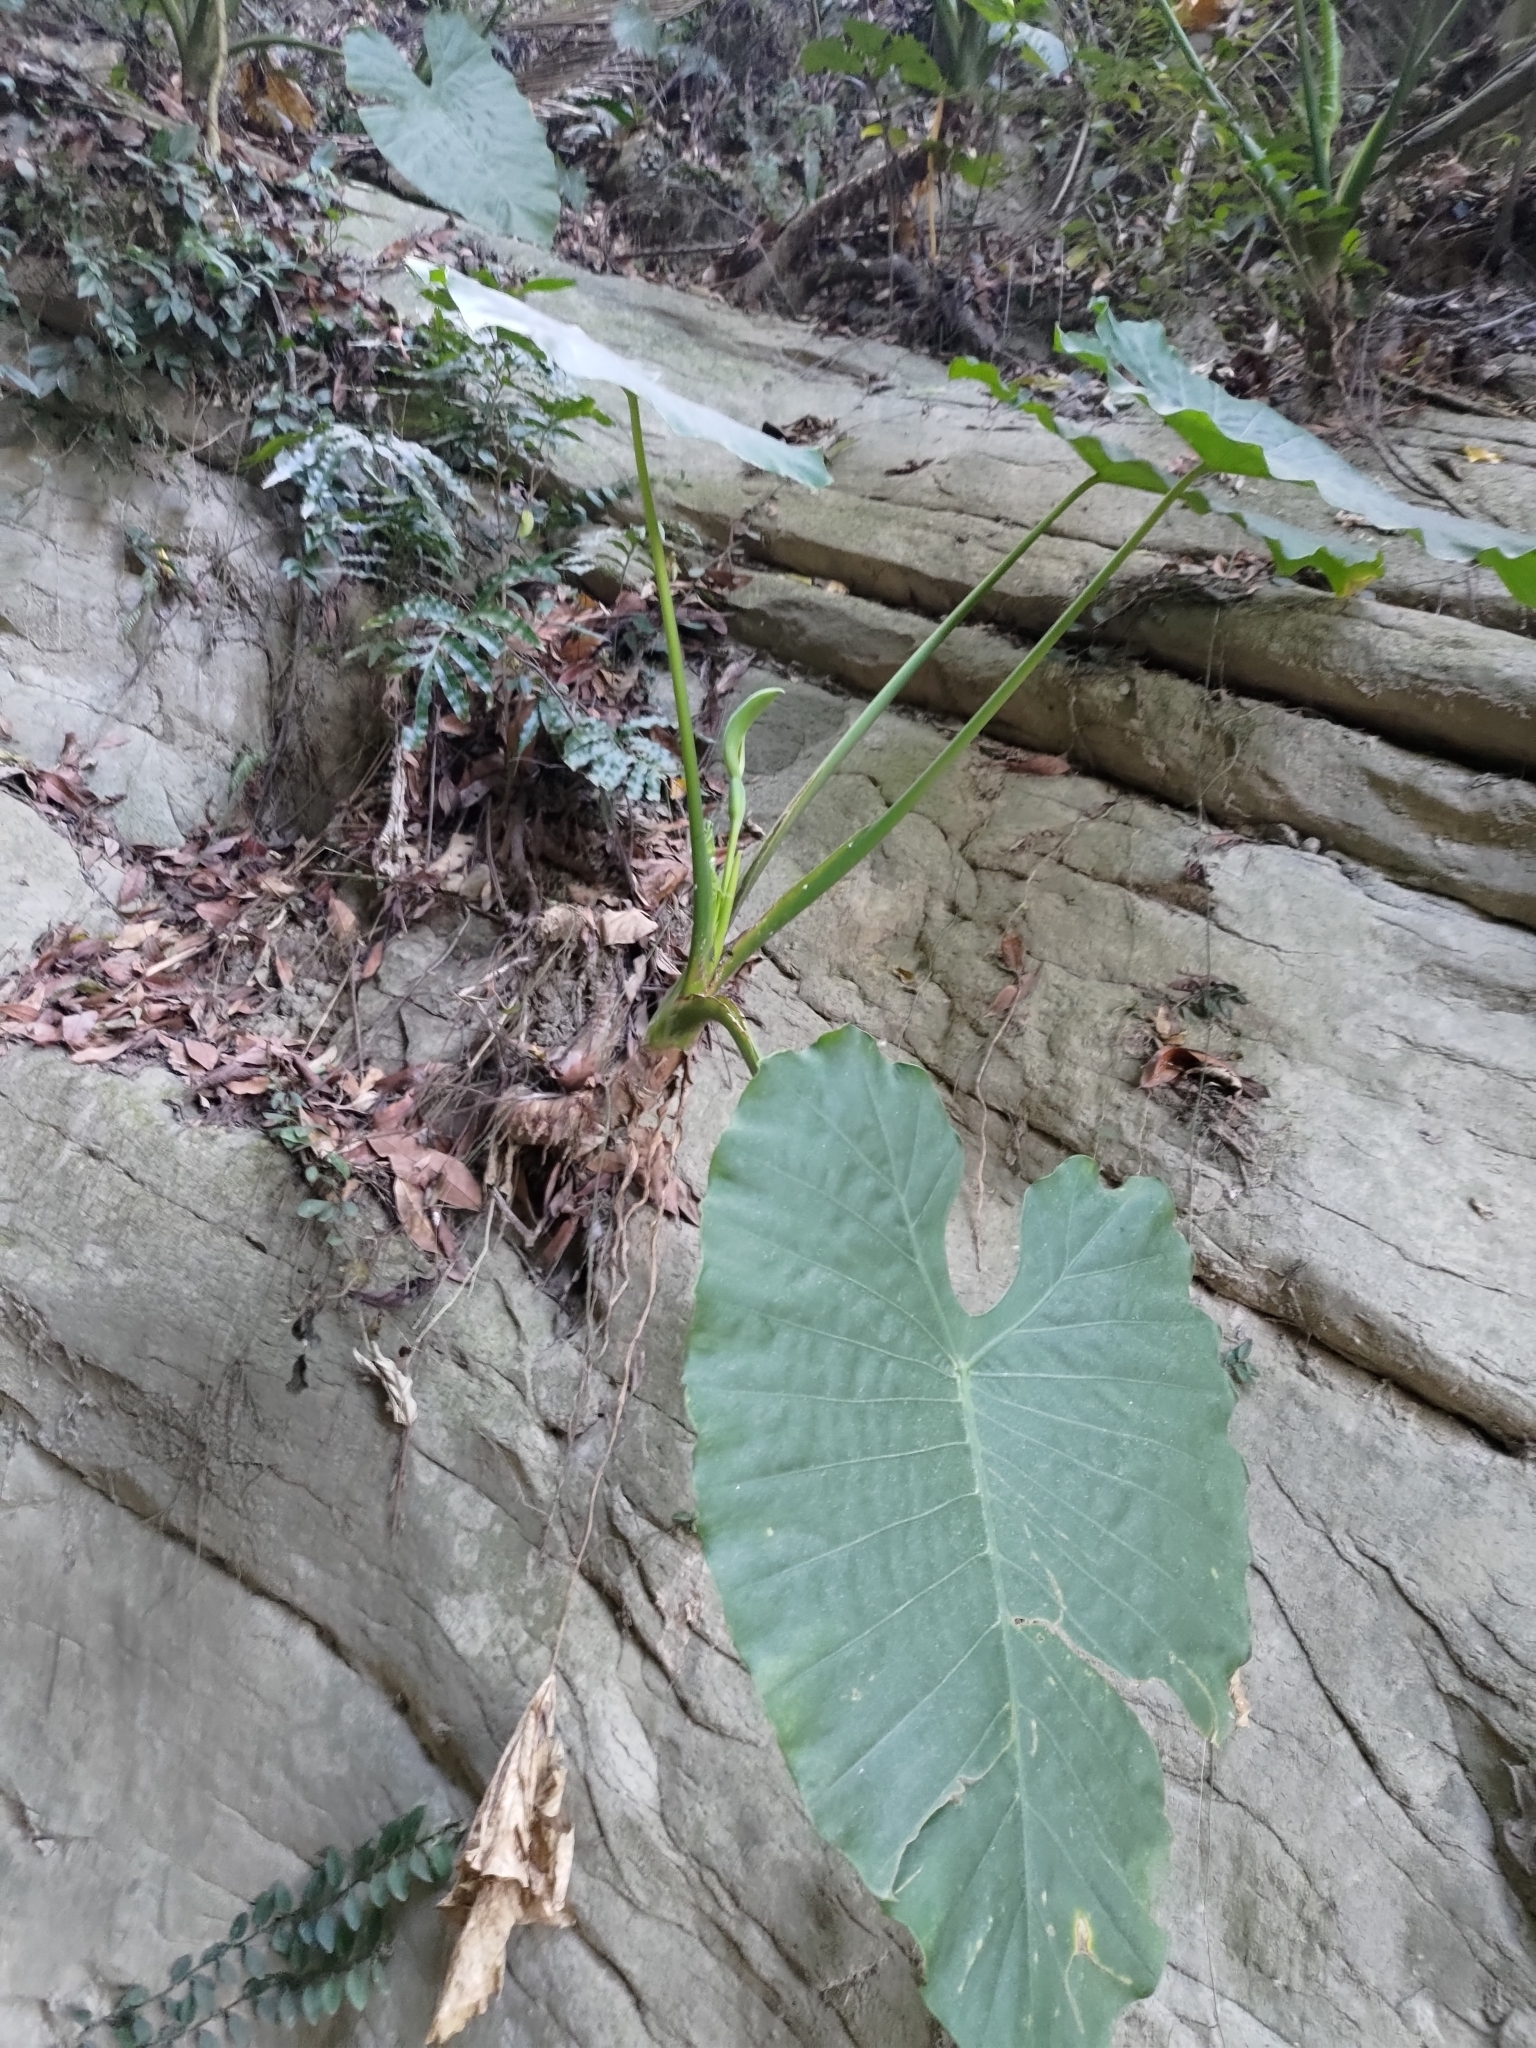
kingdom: Plantae
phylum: Tracheophyta
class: Liliopsida
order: Alismatales
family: Araceae
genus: Alocasia
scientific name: Alocasia odora
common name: Asian taro
